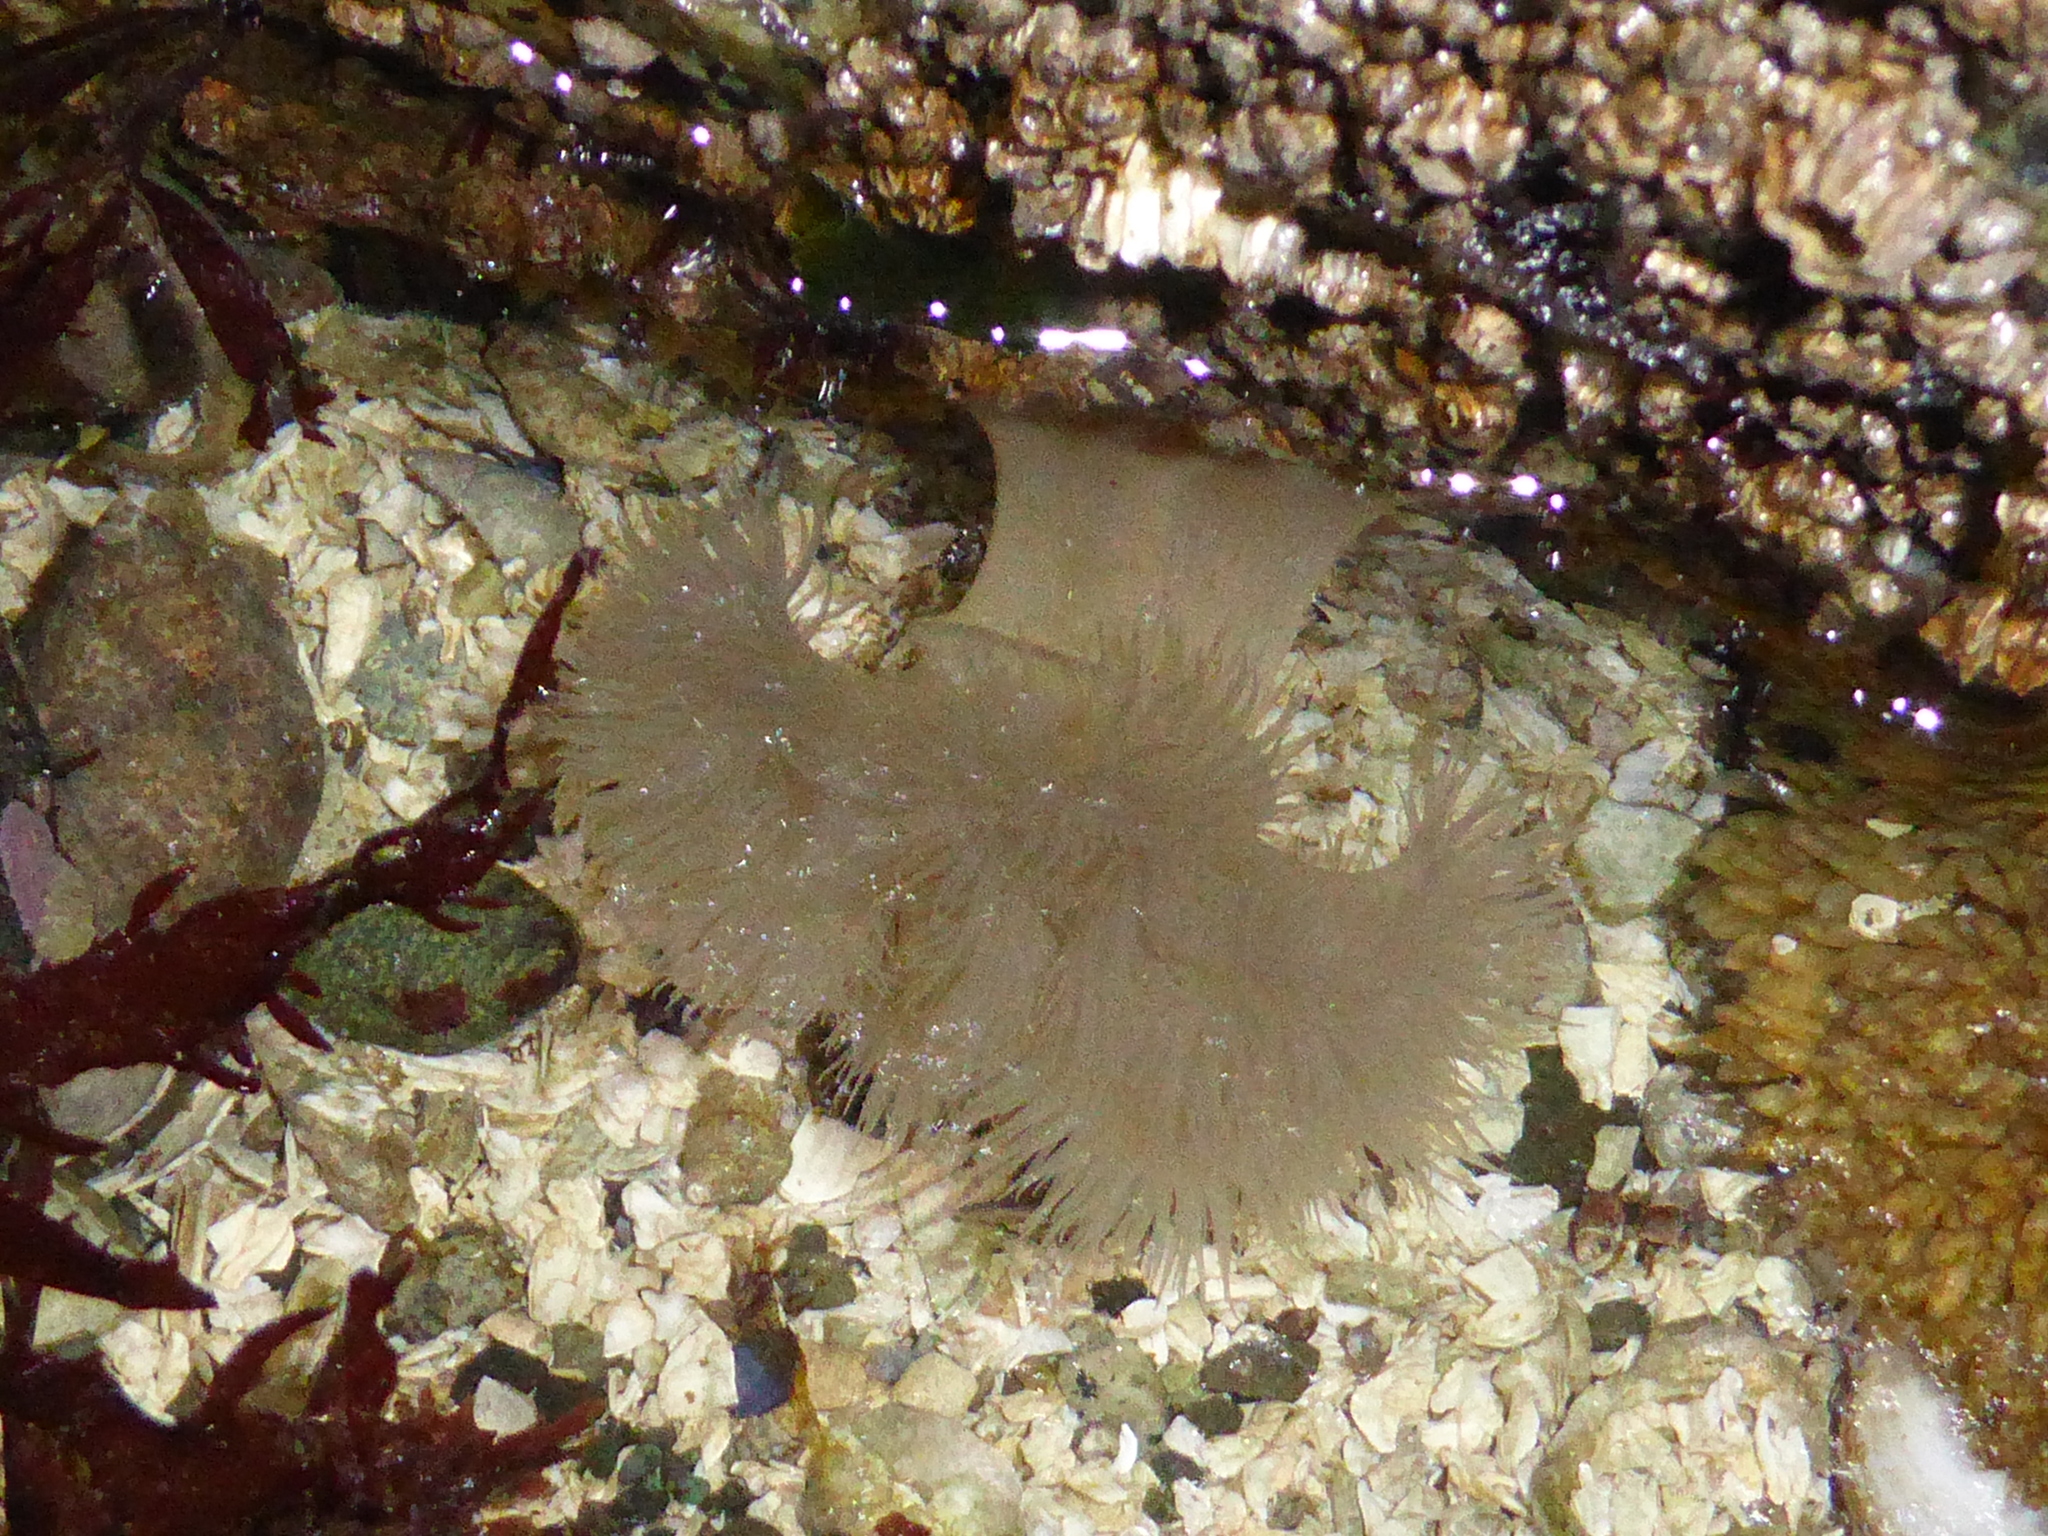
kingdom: Animalia
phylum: Cnidaria
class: Anthozoa
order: Actiniaria
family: Metridiidae
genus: Metridium
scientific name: Metridium senile
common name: Clonal plumose anemone
